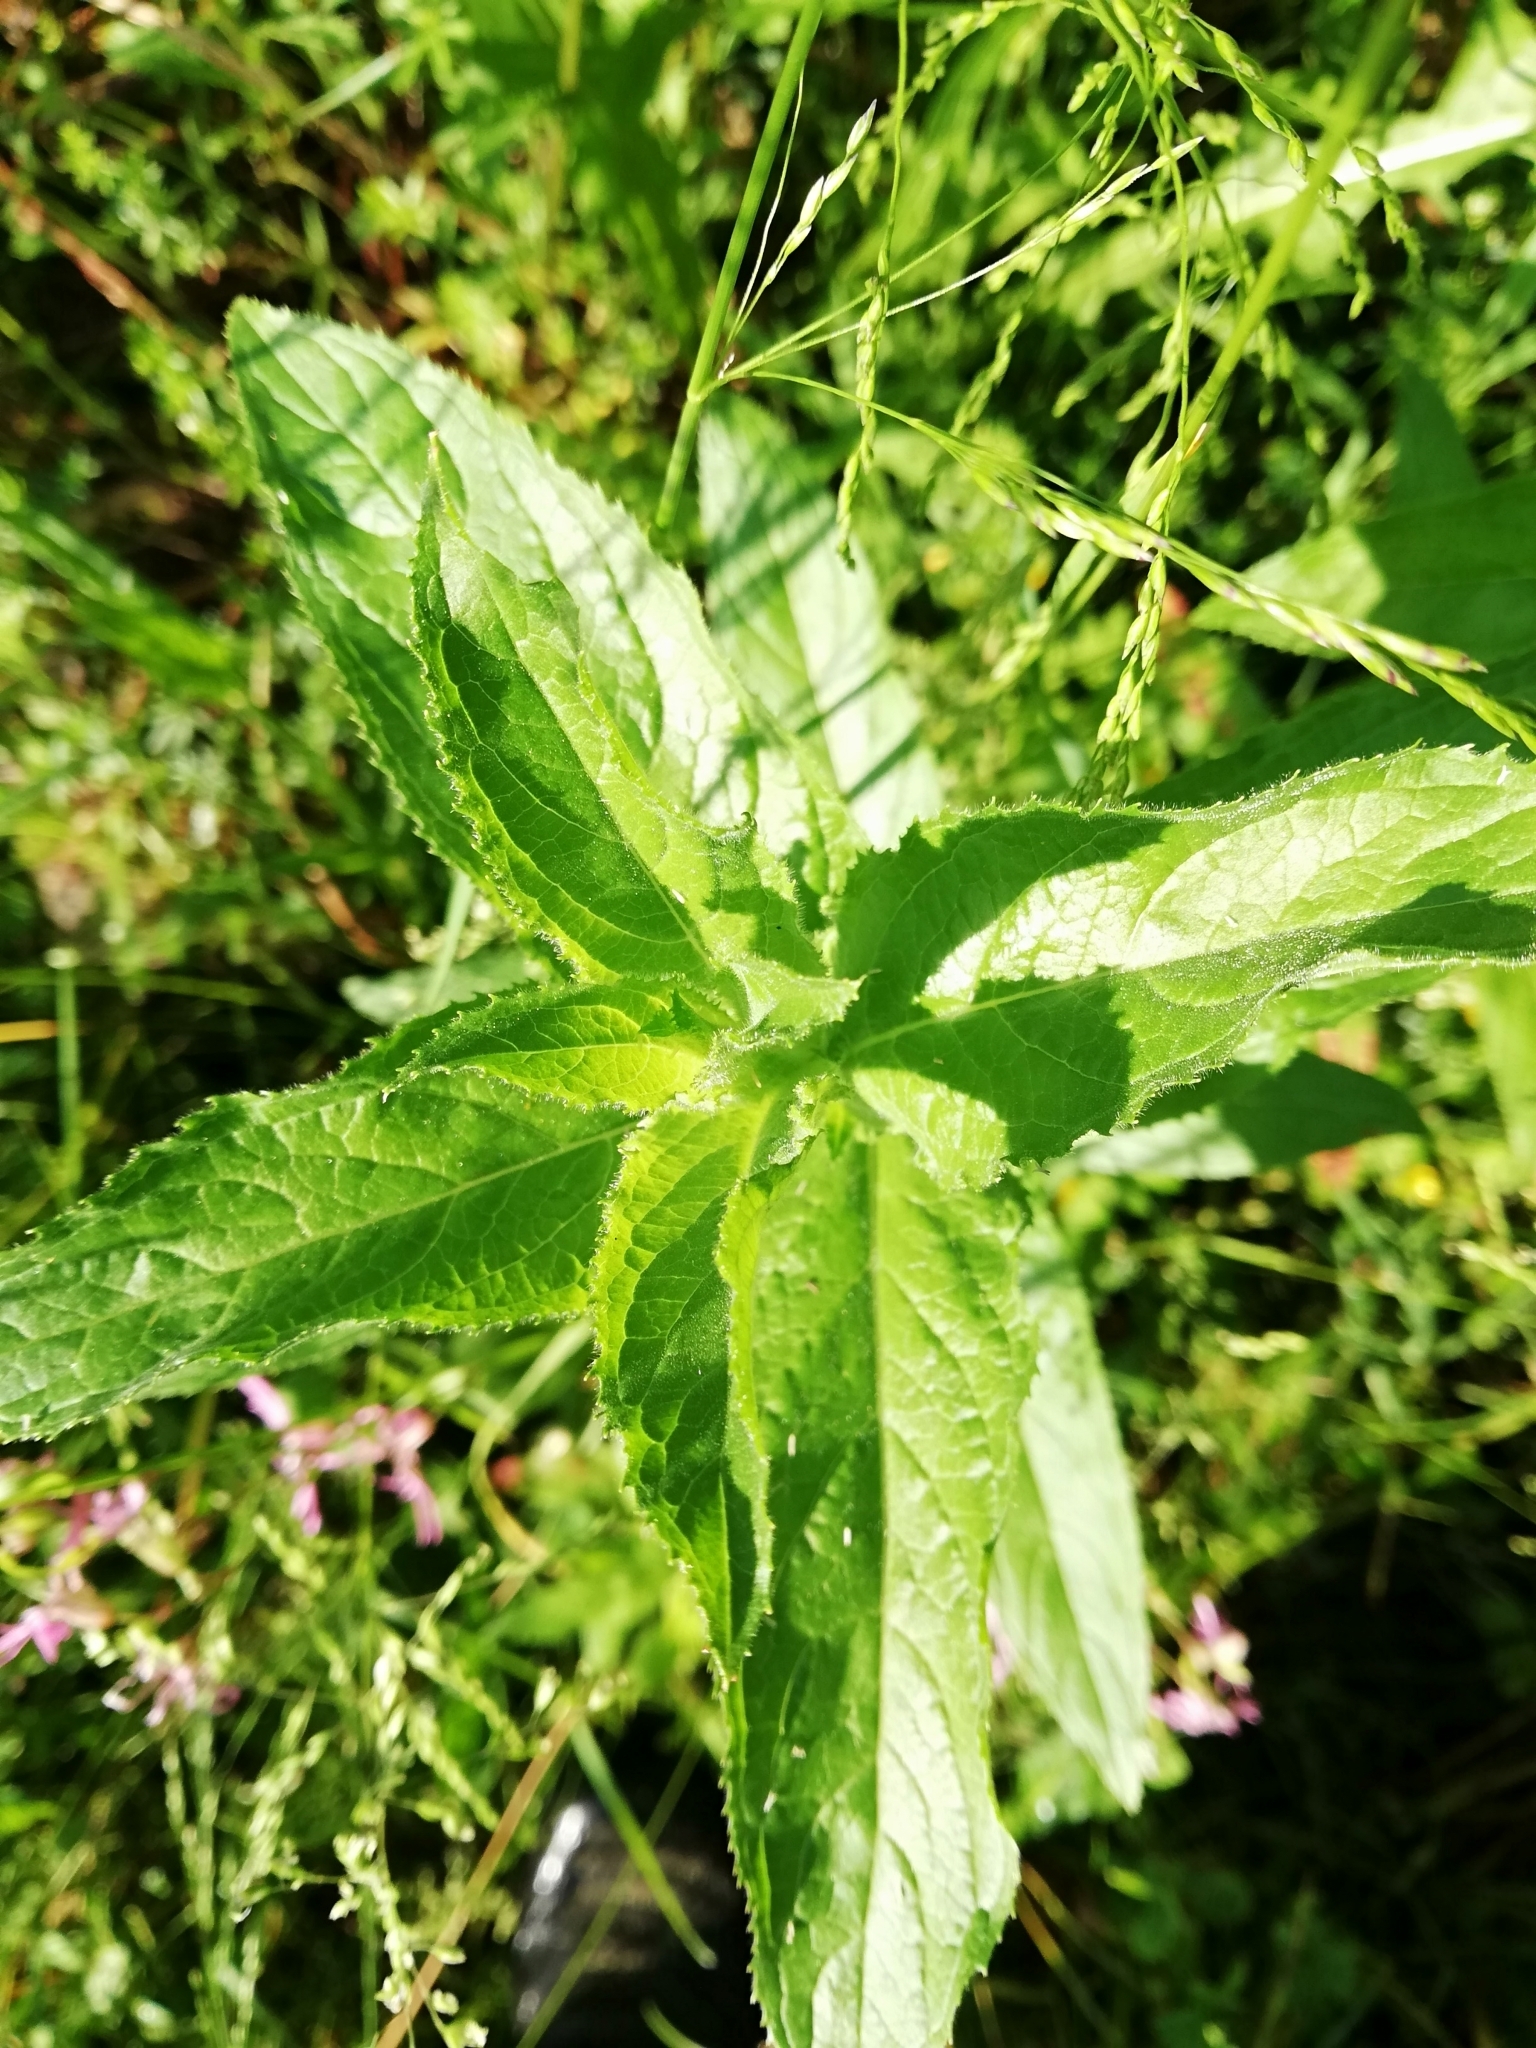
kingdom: Plantae
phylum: Tracheophyta
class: Magnoliopsida
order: Myrtales
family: Onagraceae
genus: Epilobium
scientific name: Epilobium hirsutum
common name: Great willowherb
